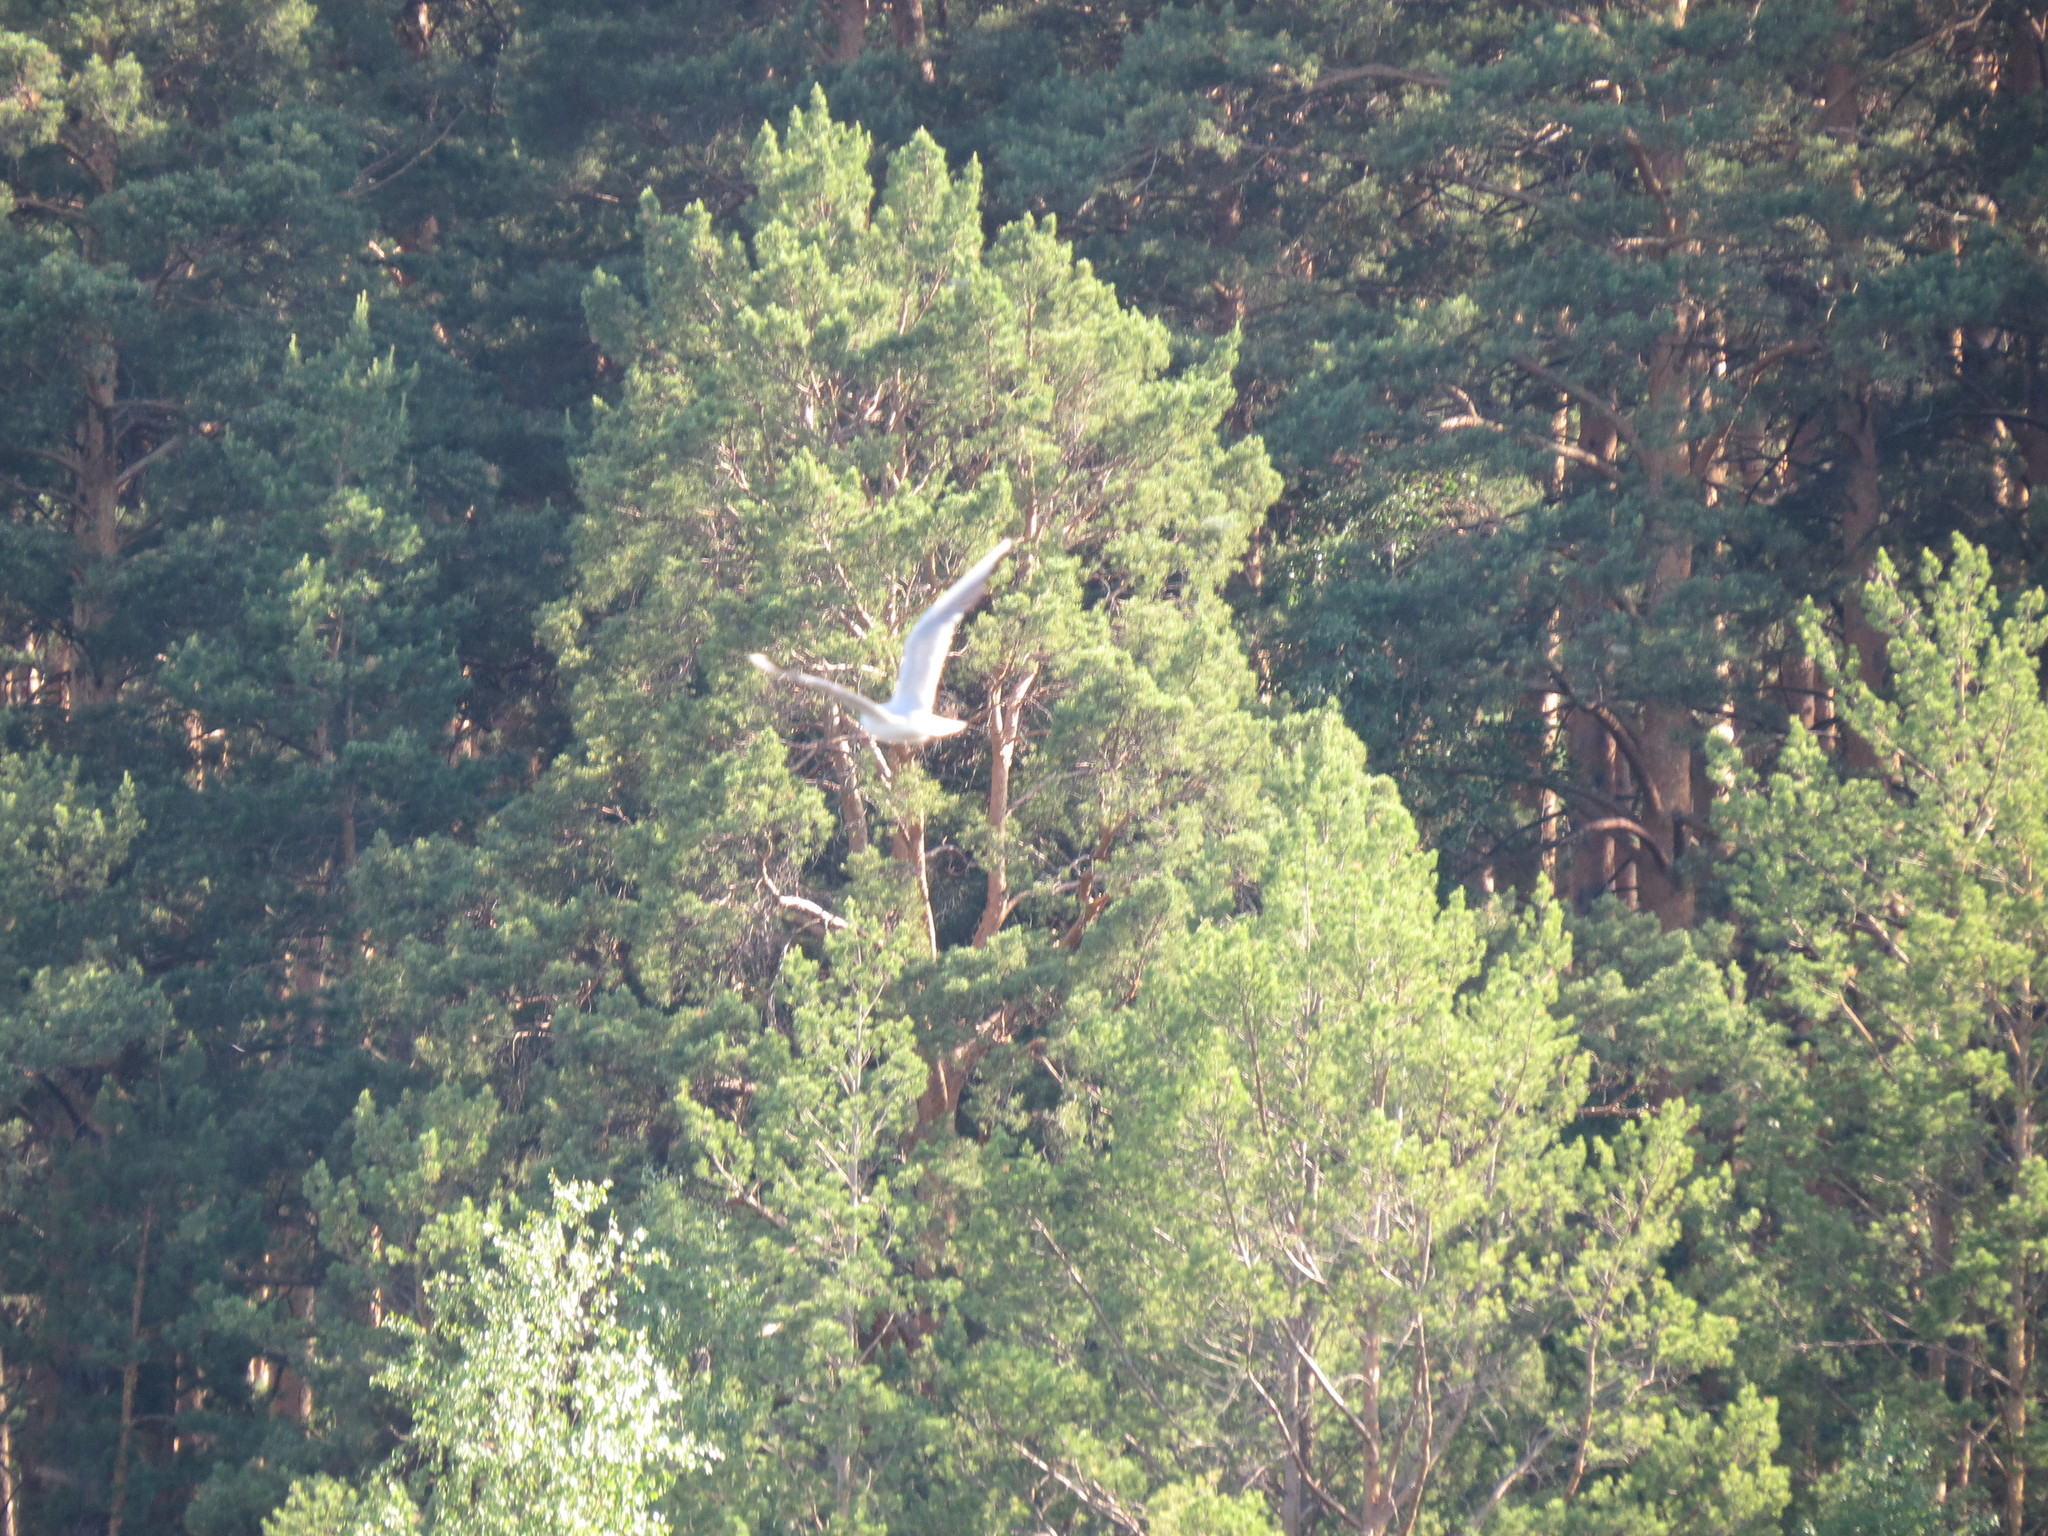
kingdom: Animalia
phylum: Chordata
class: Aves
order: Charadriiformes
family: Laridae
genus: Chroicocephalus
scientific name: Chroicocephalus ridibundus
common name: Black-headed gull
